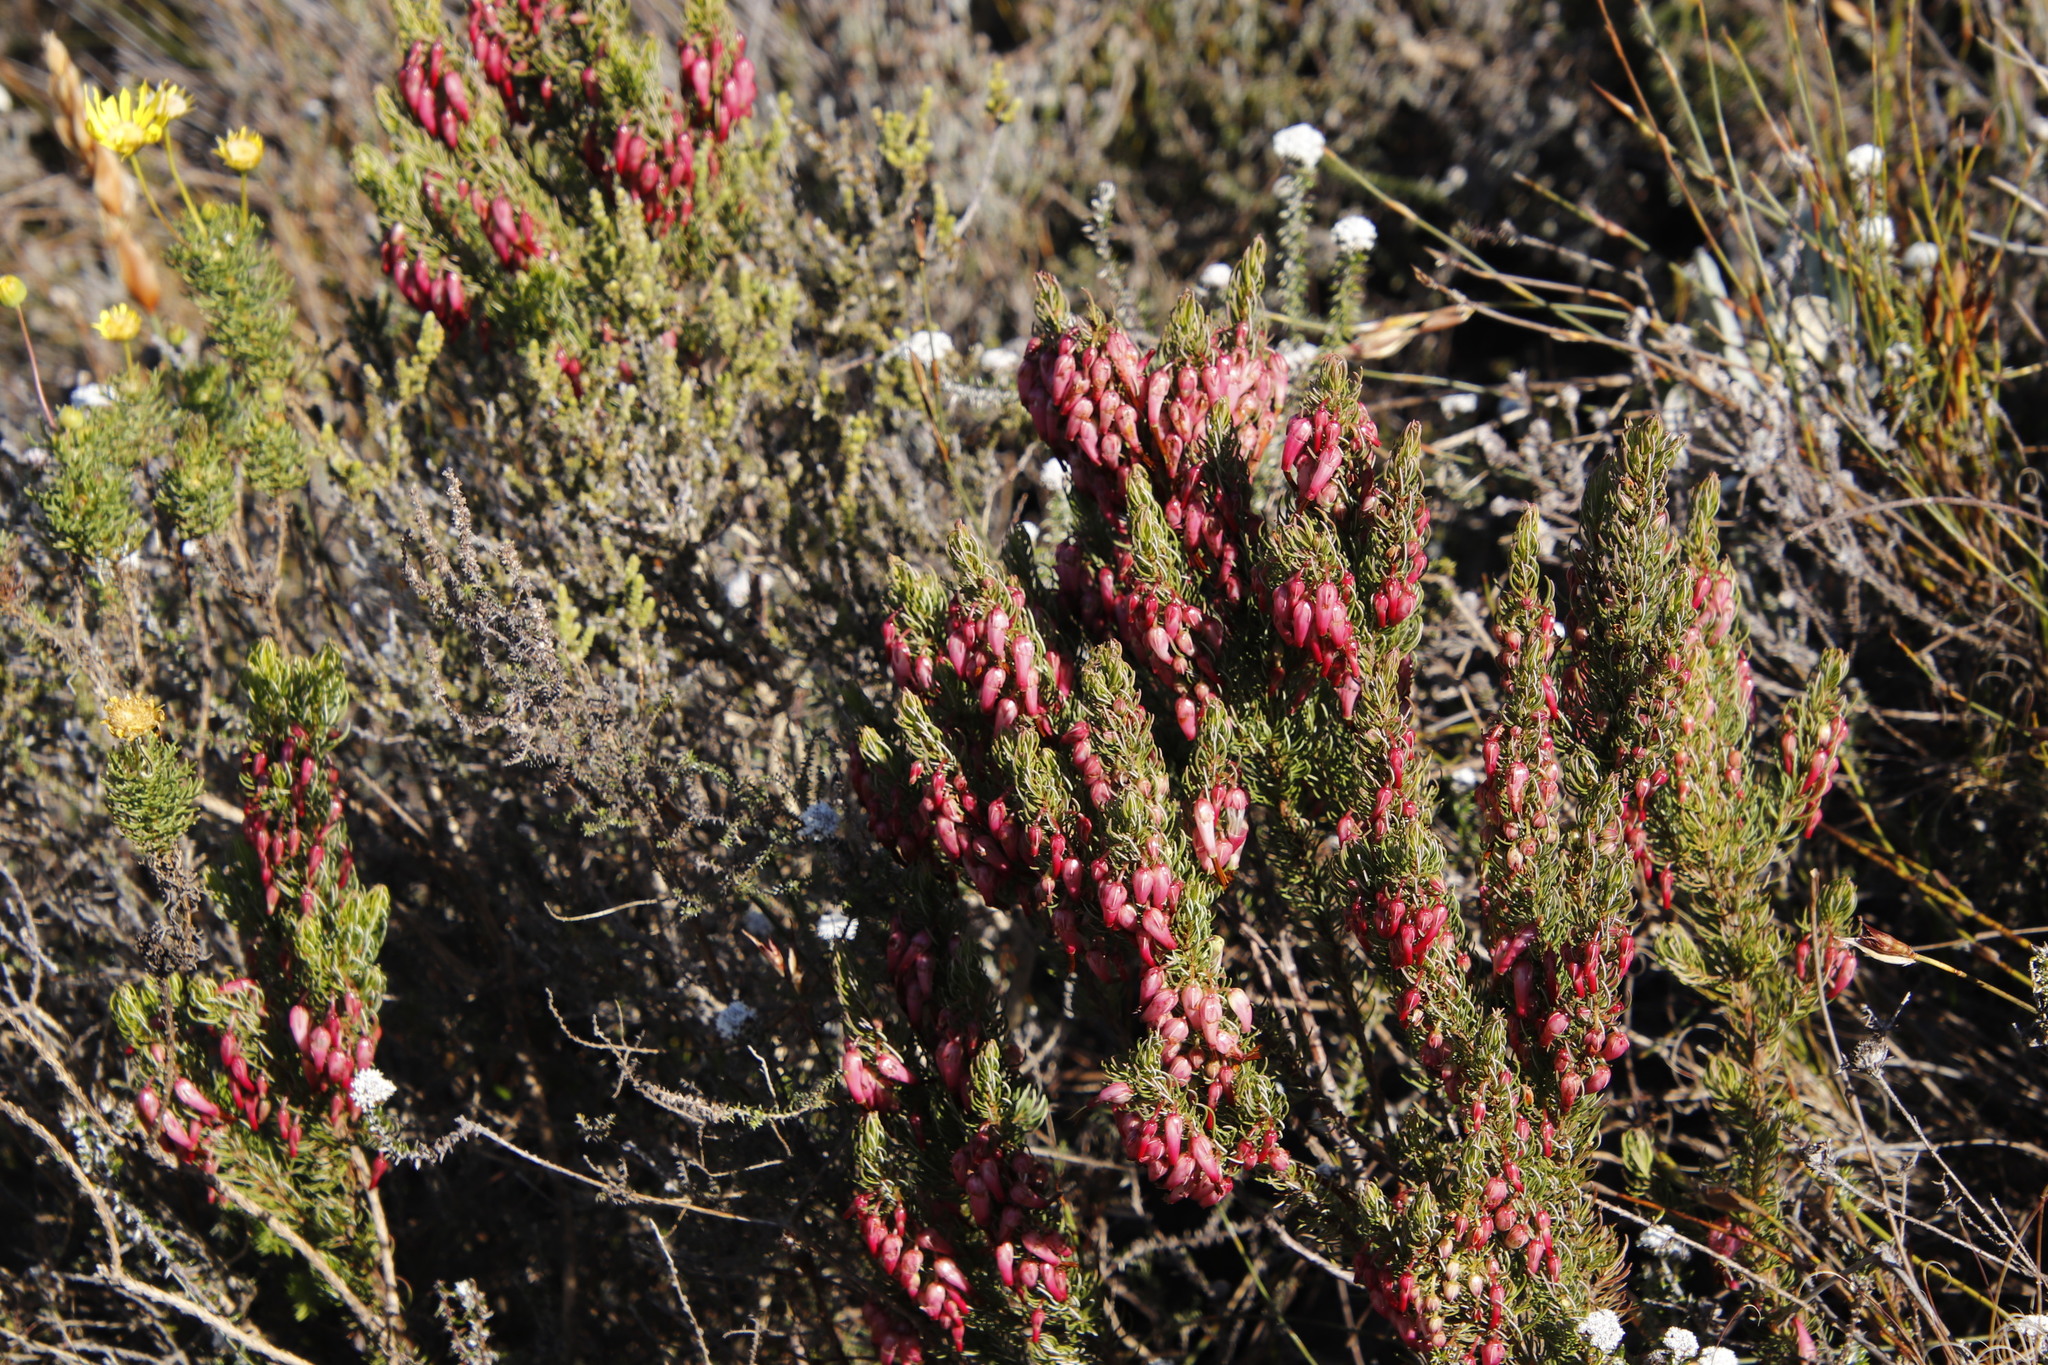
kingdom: Plantae
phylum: Tracheophyta
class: Magnoliopsida
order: Ericales
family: Ericaceae
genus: Erica
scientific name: Erica plukenetii
